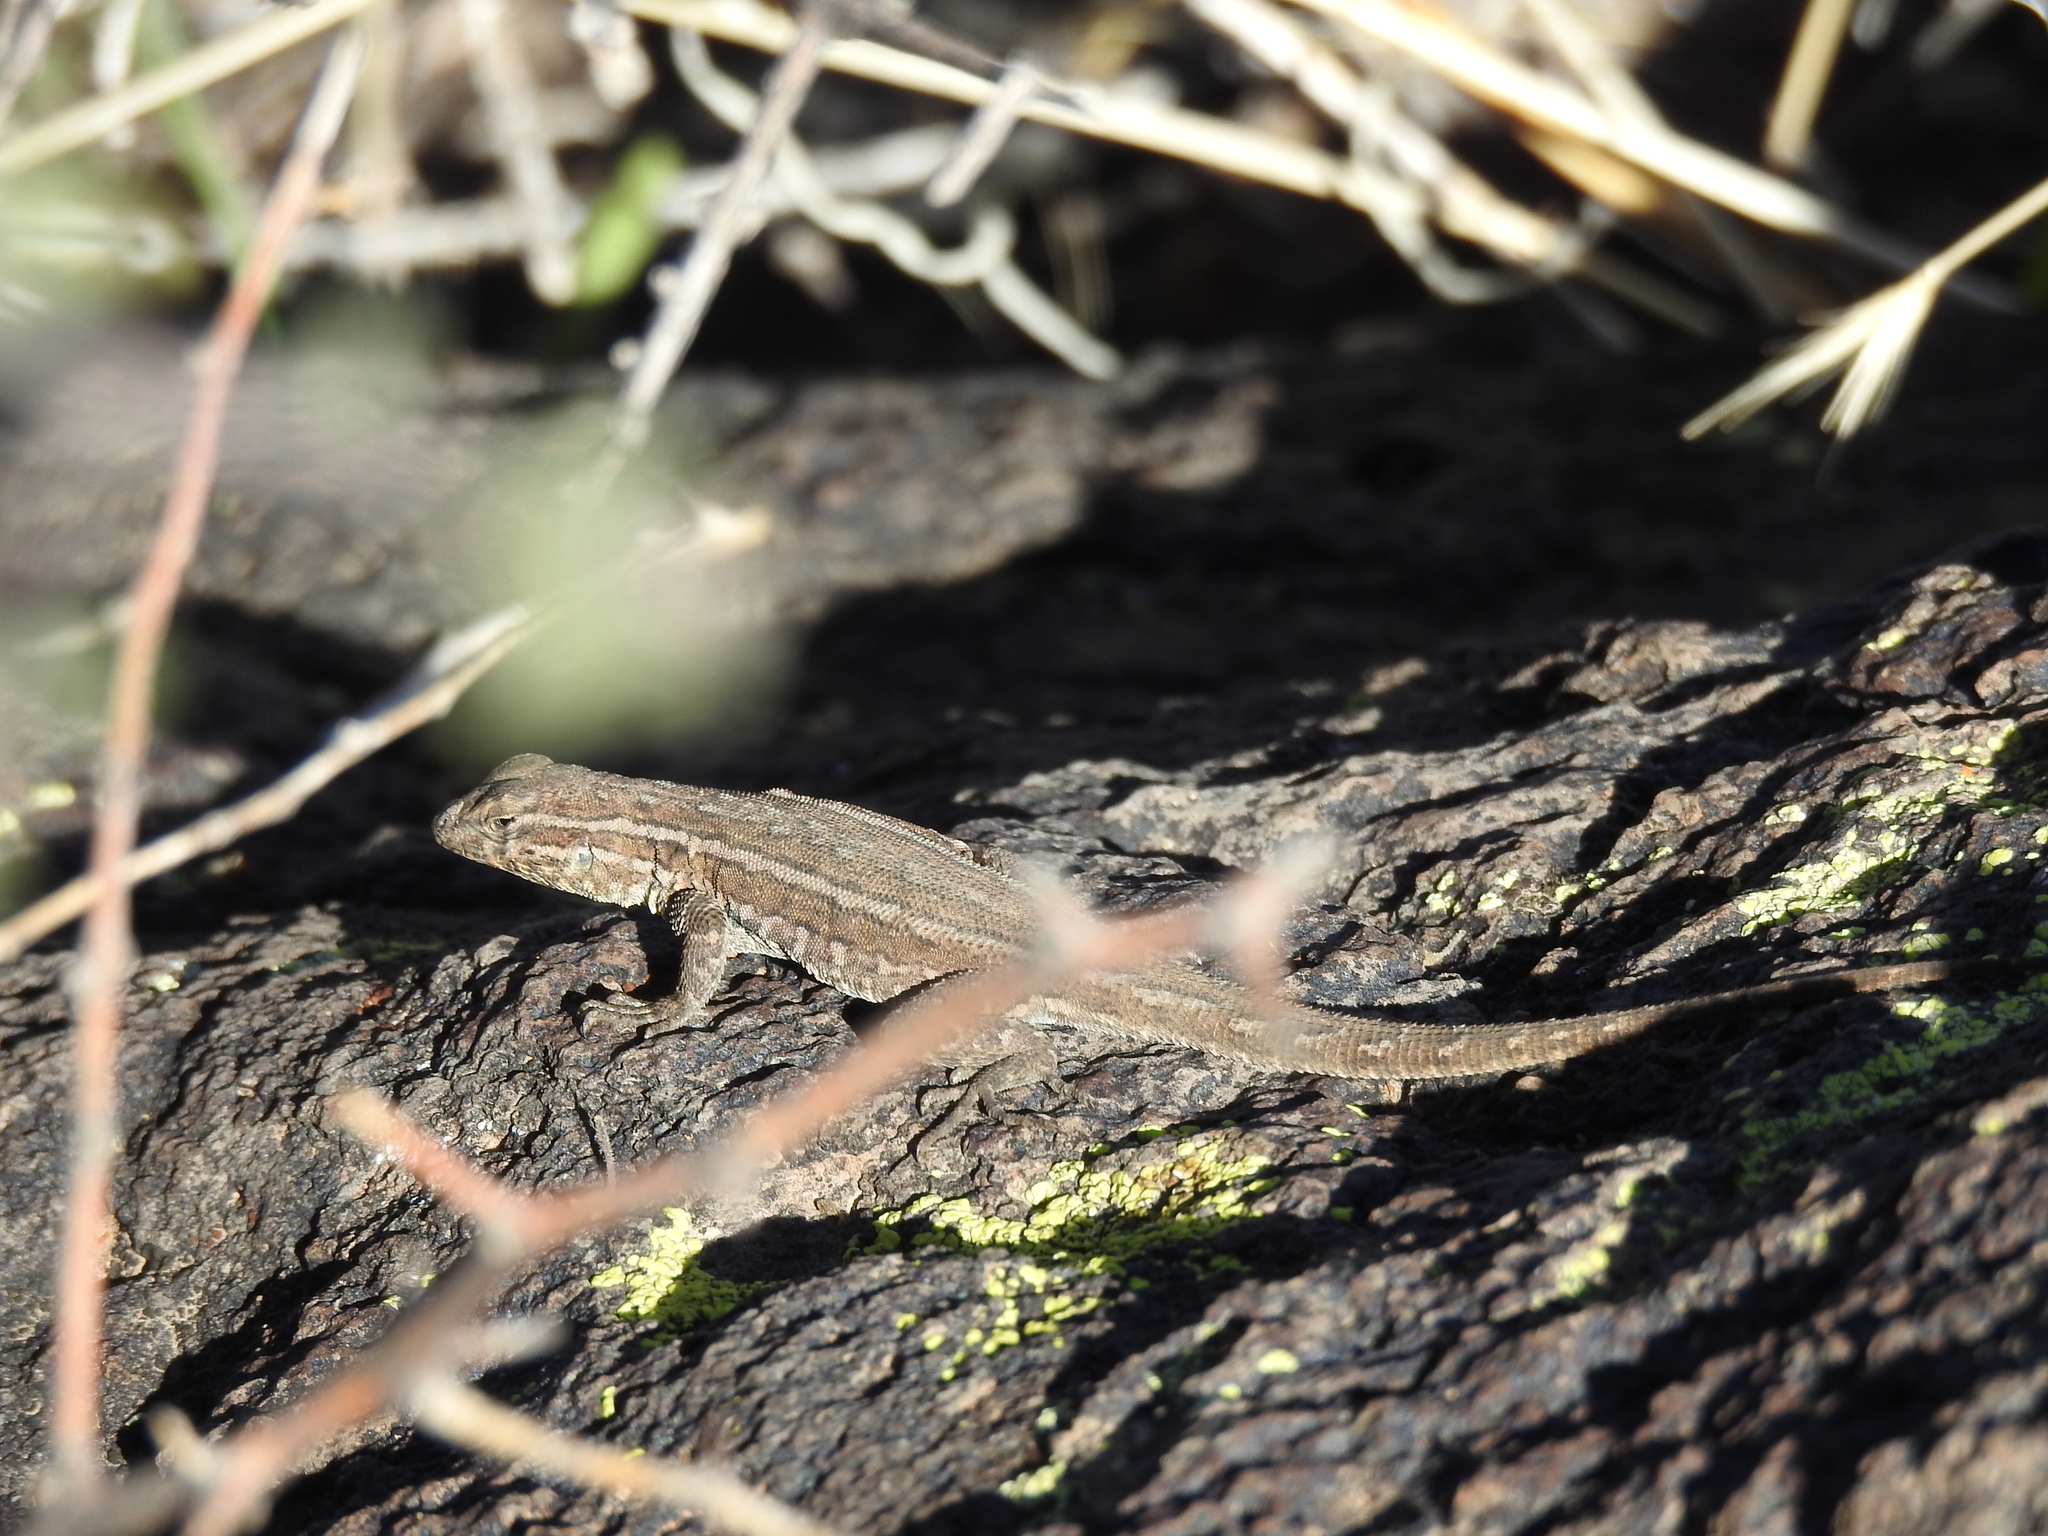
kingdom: Animalia
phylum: Chordata
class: Squamata
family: Phrynosomatidae
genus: Uta
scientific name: Uta stansburiana
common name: Side-blotched lizard
